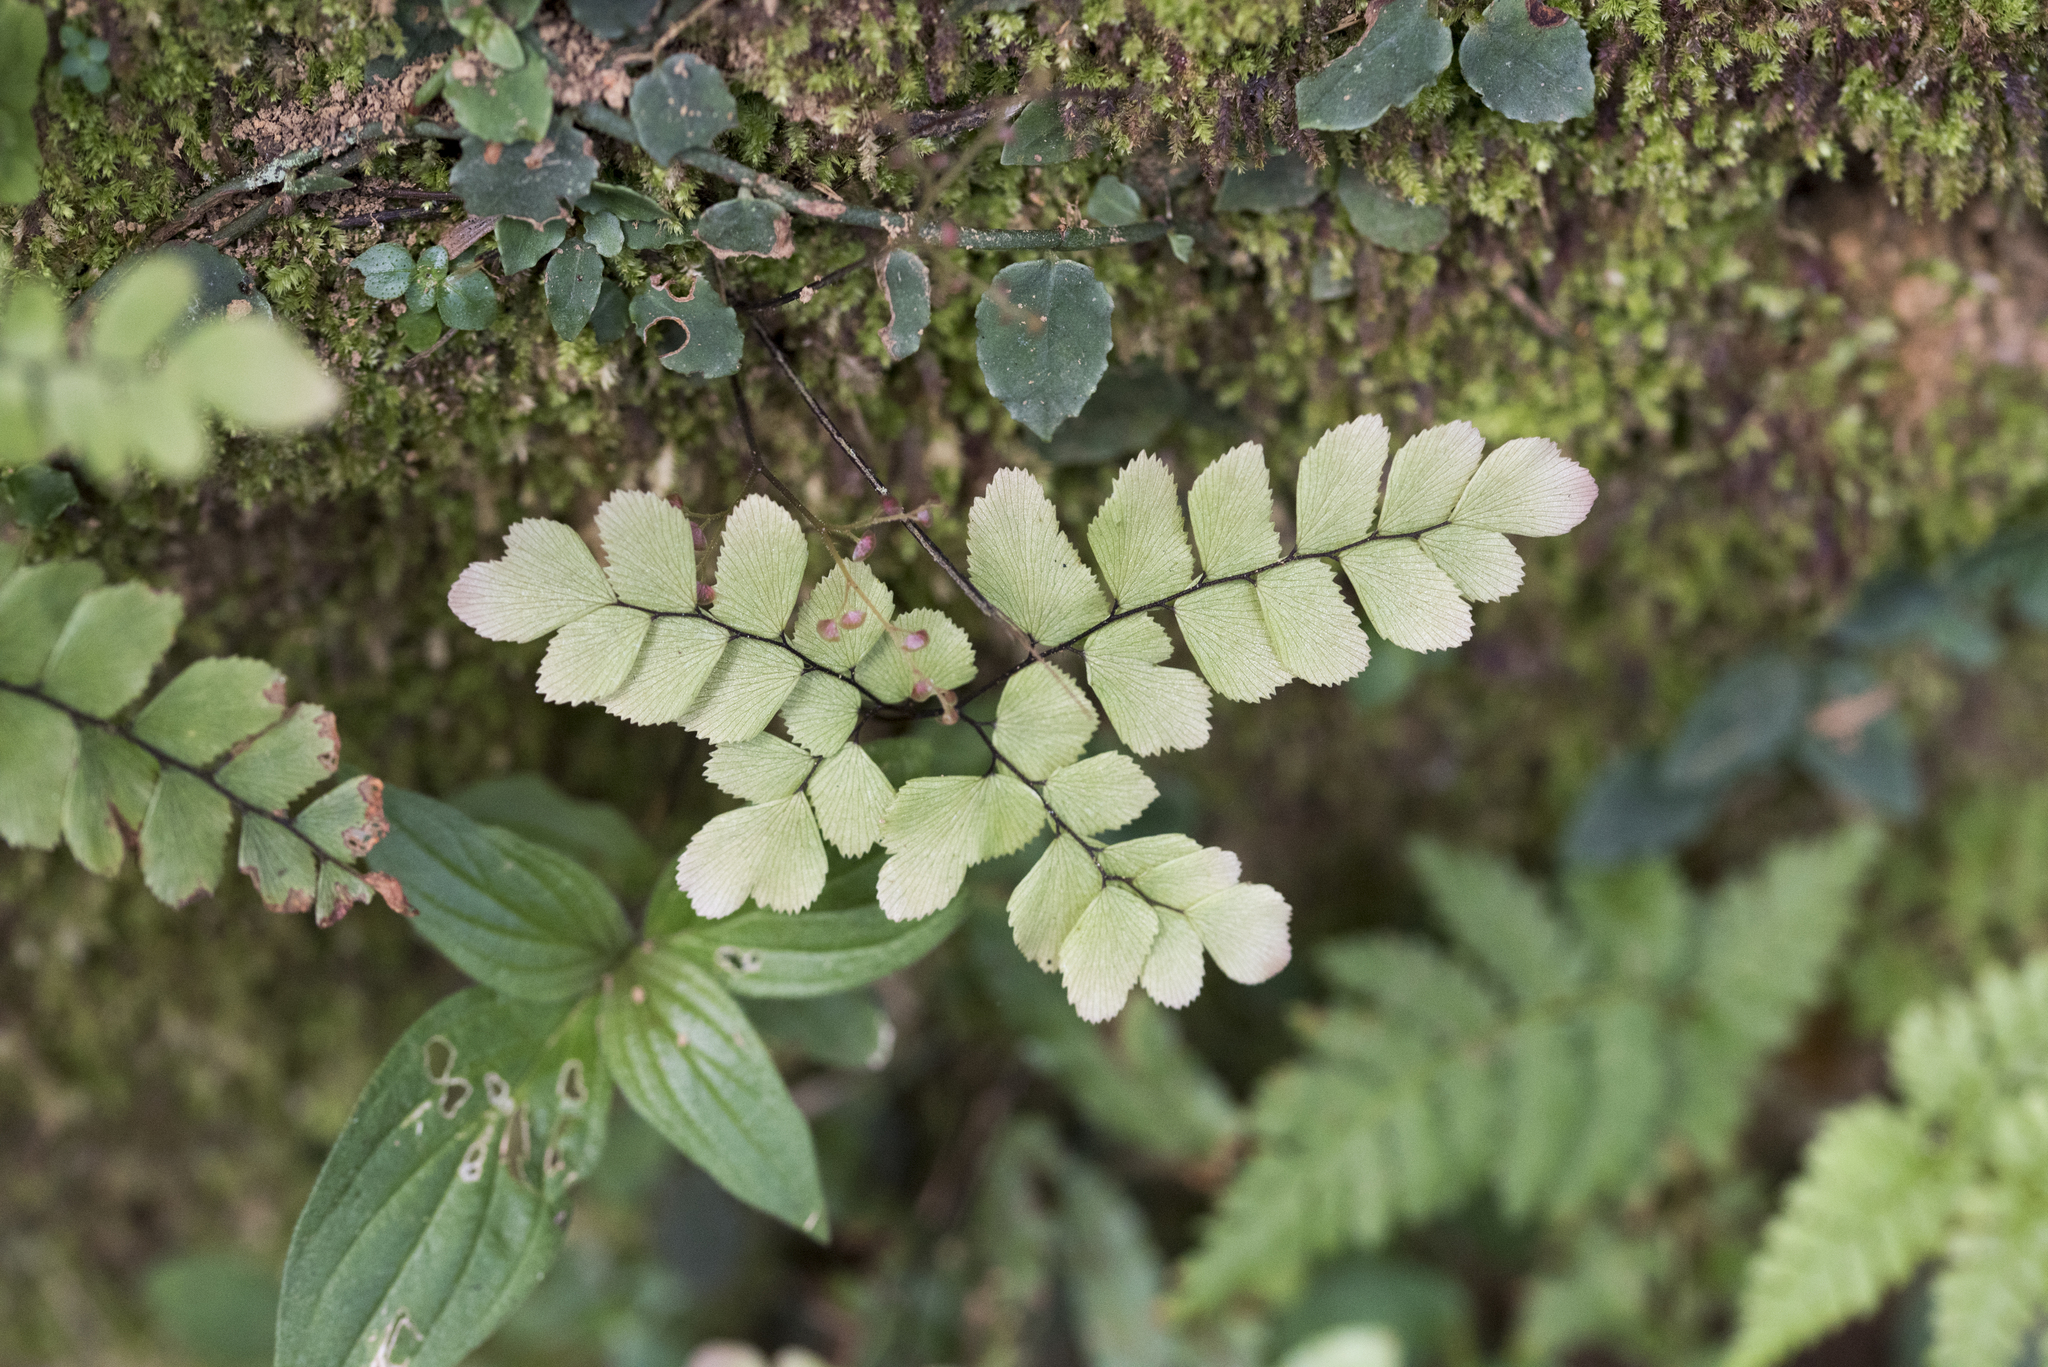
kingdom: Plantae
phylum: Tracheophyta
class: Polypodiopsida
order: Polypodiales
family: Pteridaceae
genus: Adiantum
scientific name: Adiantum flabellulatum
